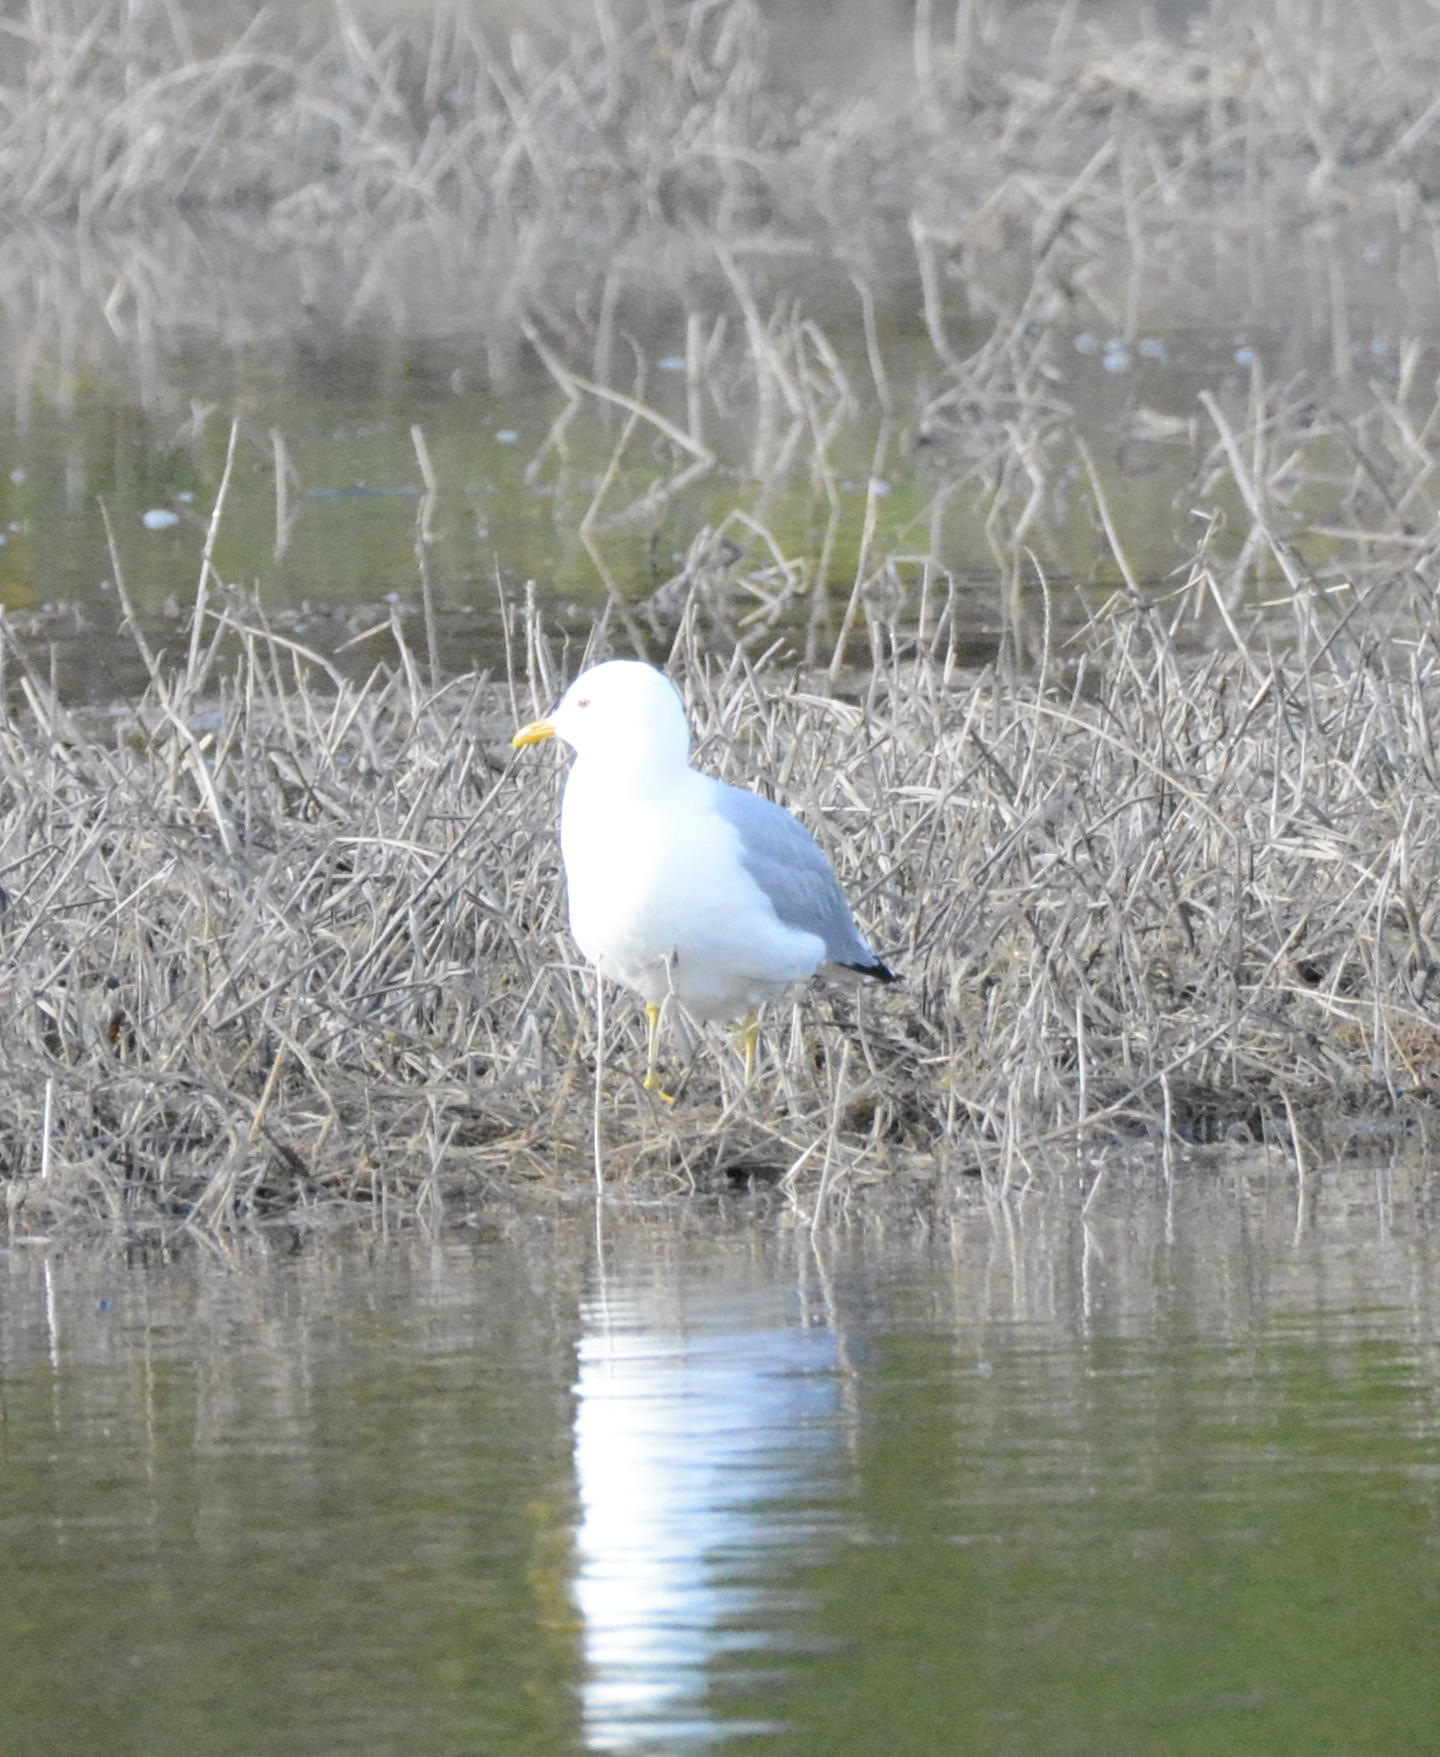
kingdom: Animalia
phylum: Chordata
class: Aves
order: Charadriiformes
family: Laridae
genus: Larus
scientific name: Larus canus
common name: Mew gull
